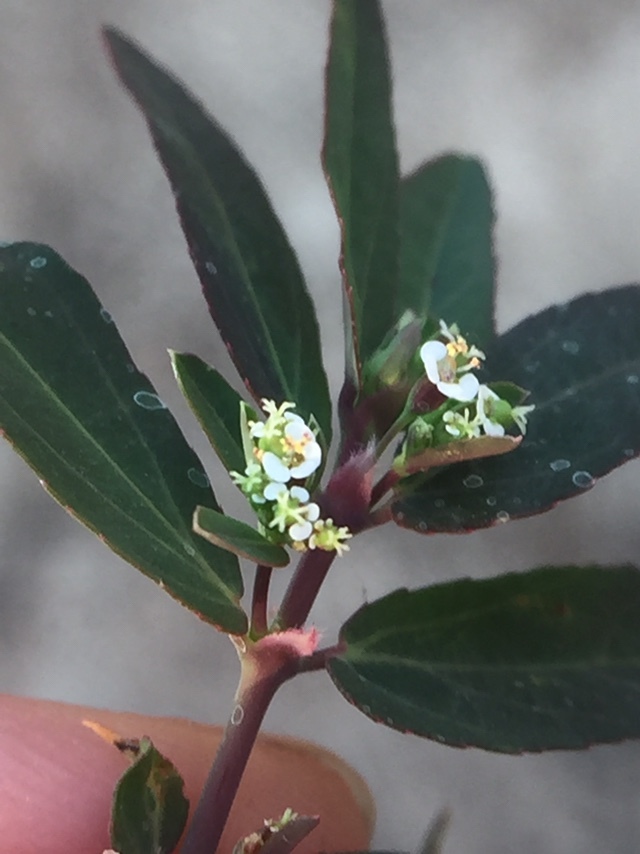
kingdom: Plantae
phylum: Tracheophyta
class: Magnoliopsida
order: Malpighiales
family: Euphorbiaceae
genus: Euphorbia
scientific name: Euphorbia hypericifolia
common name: Graceful sandmat
